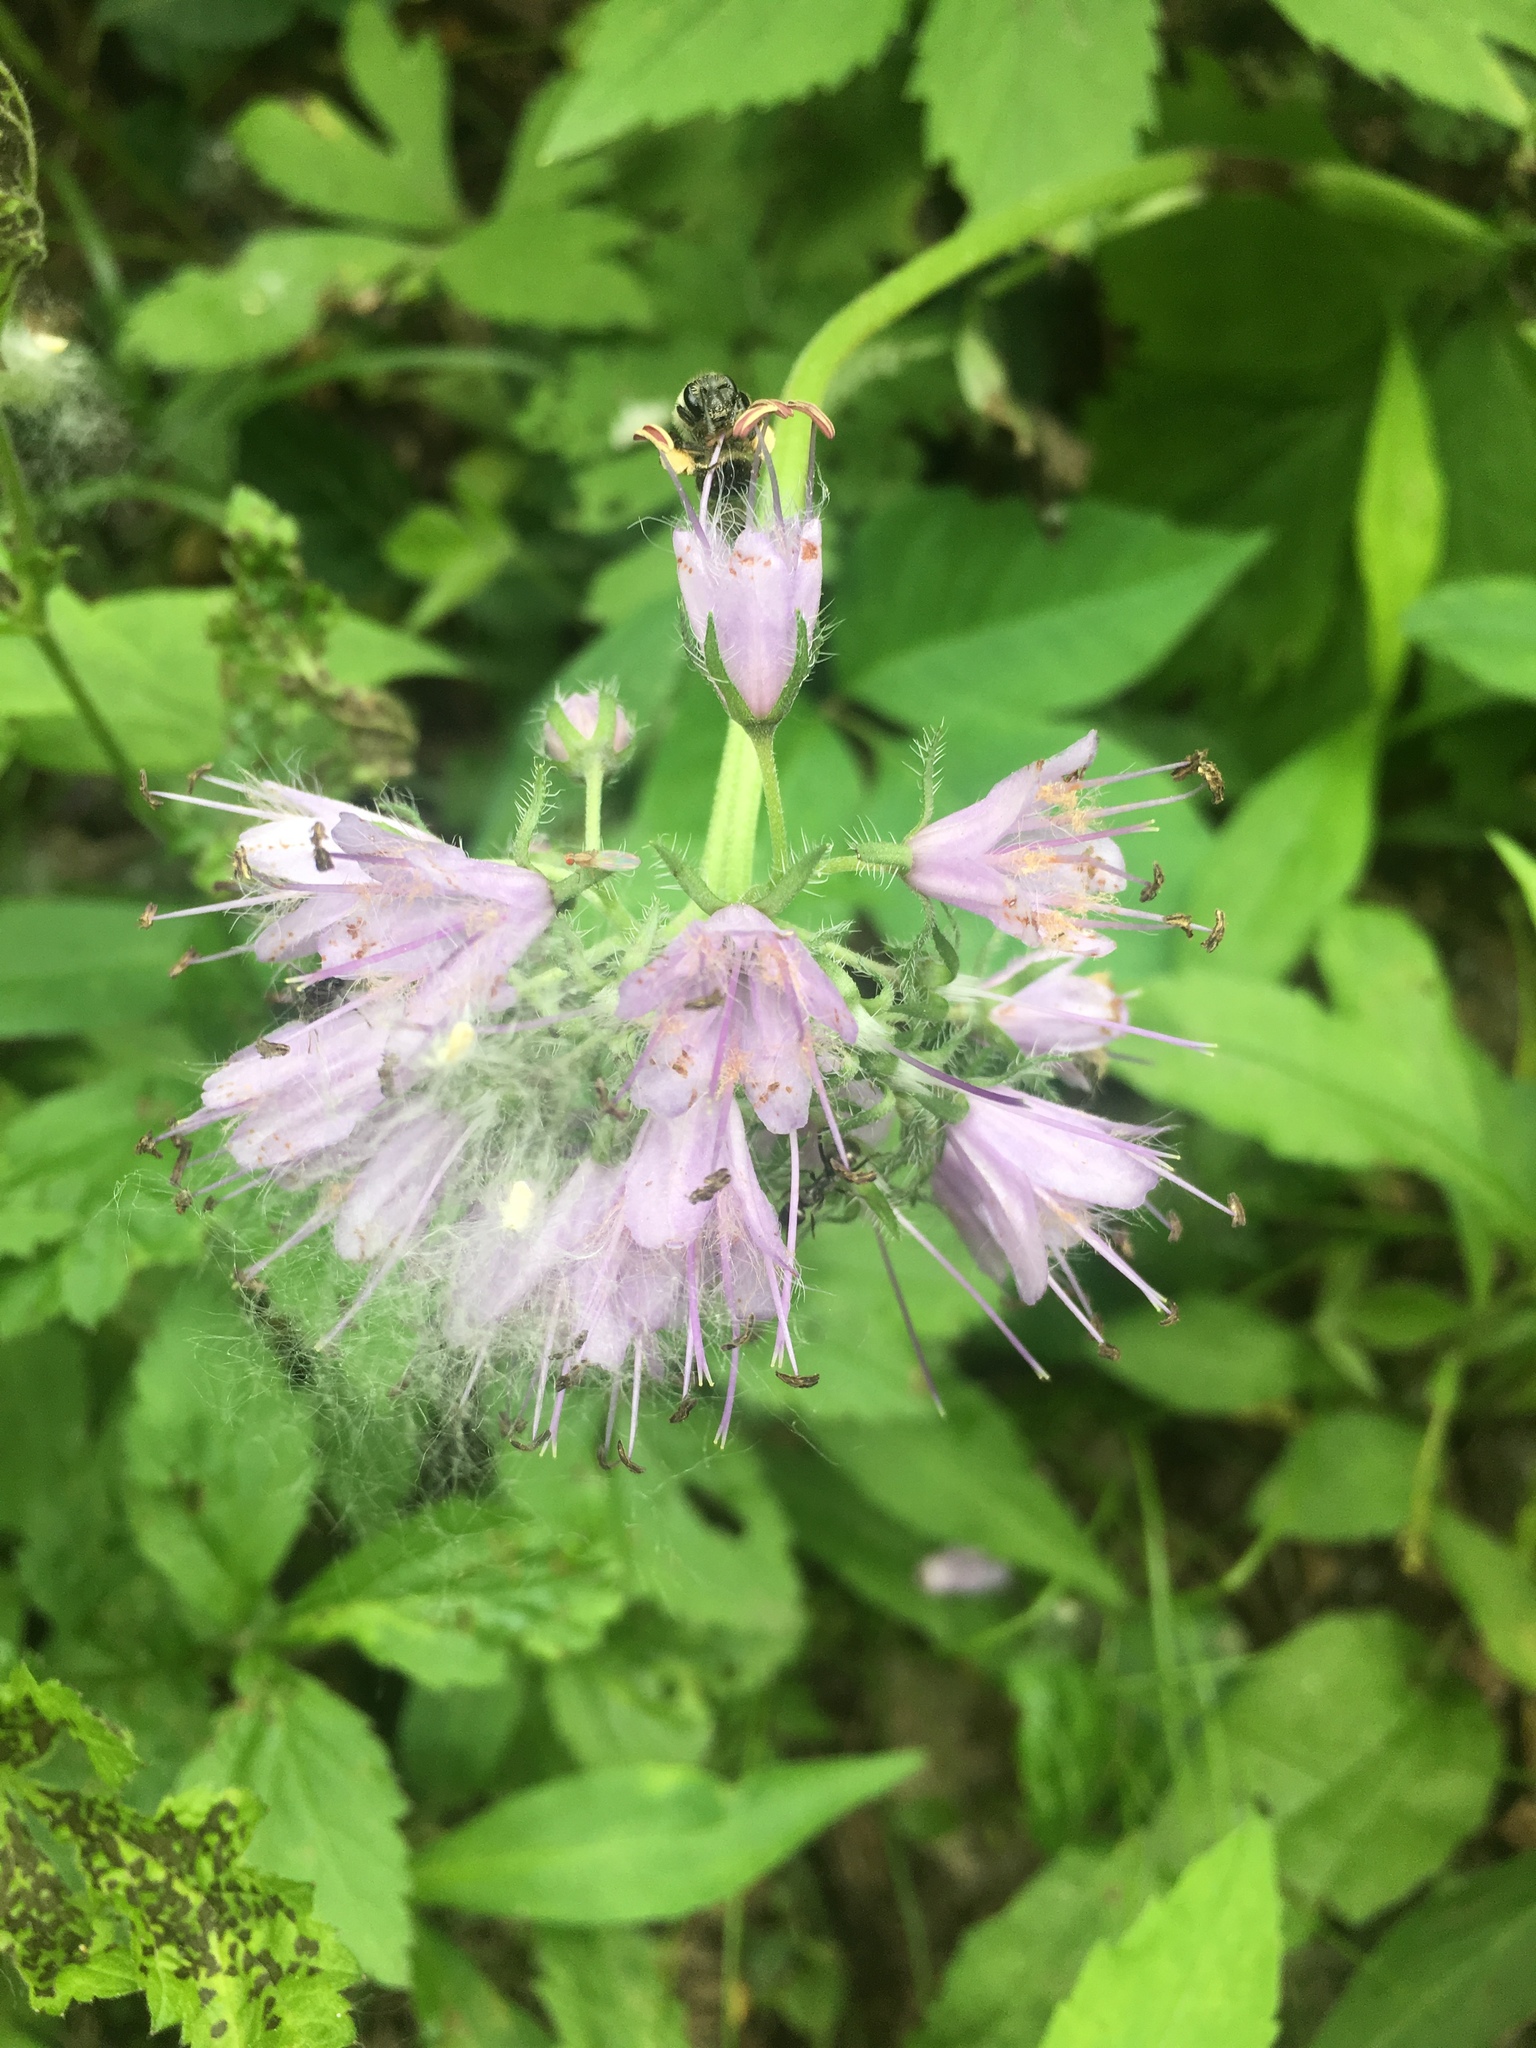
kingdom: Plantae
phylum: Tracheophyta
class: Magnoliopsida
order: Boraginales
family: Hydrophyllaceae
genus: Hydrophyllum
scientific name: Hydrophyllum virginianum
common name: Virginia waterleaf
